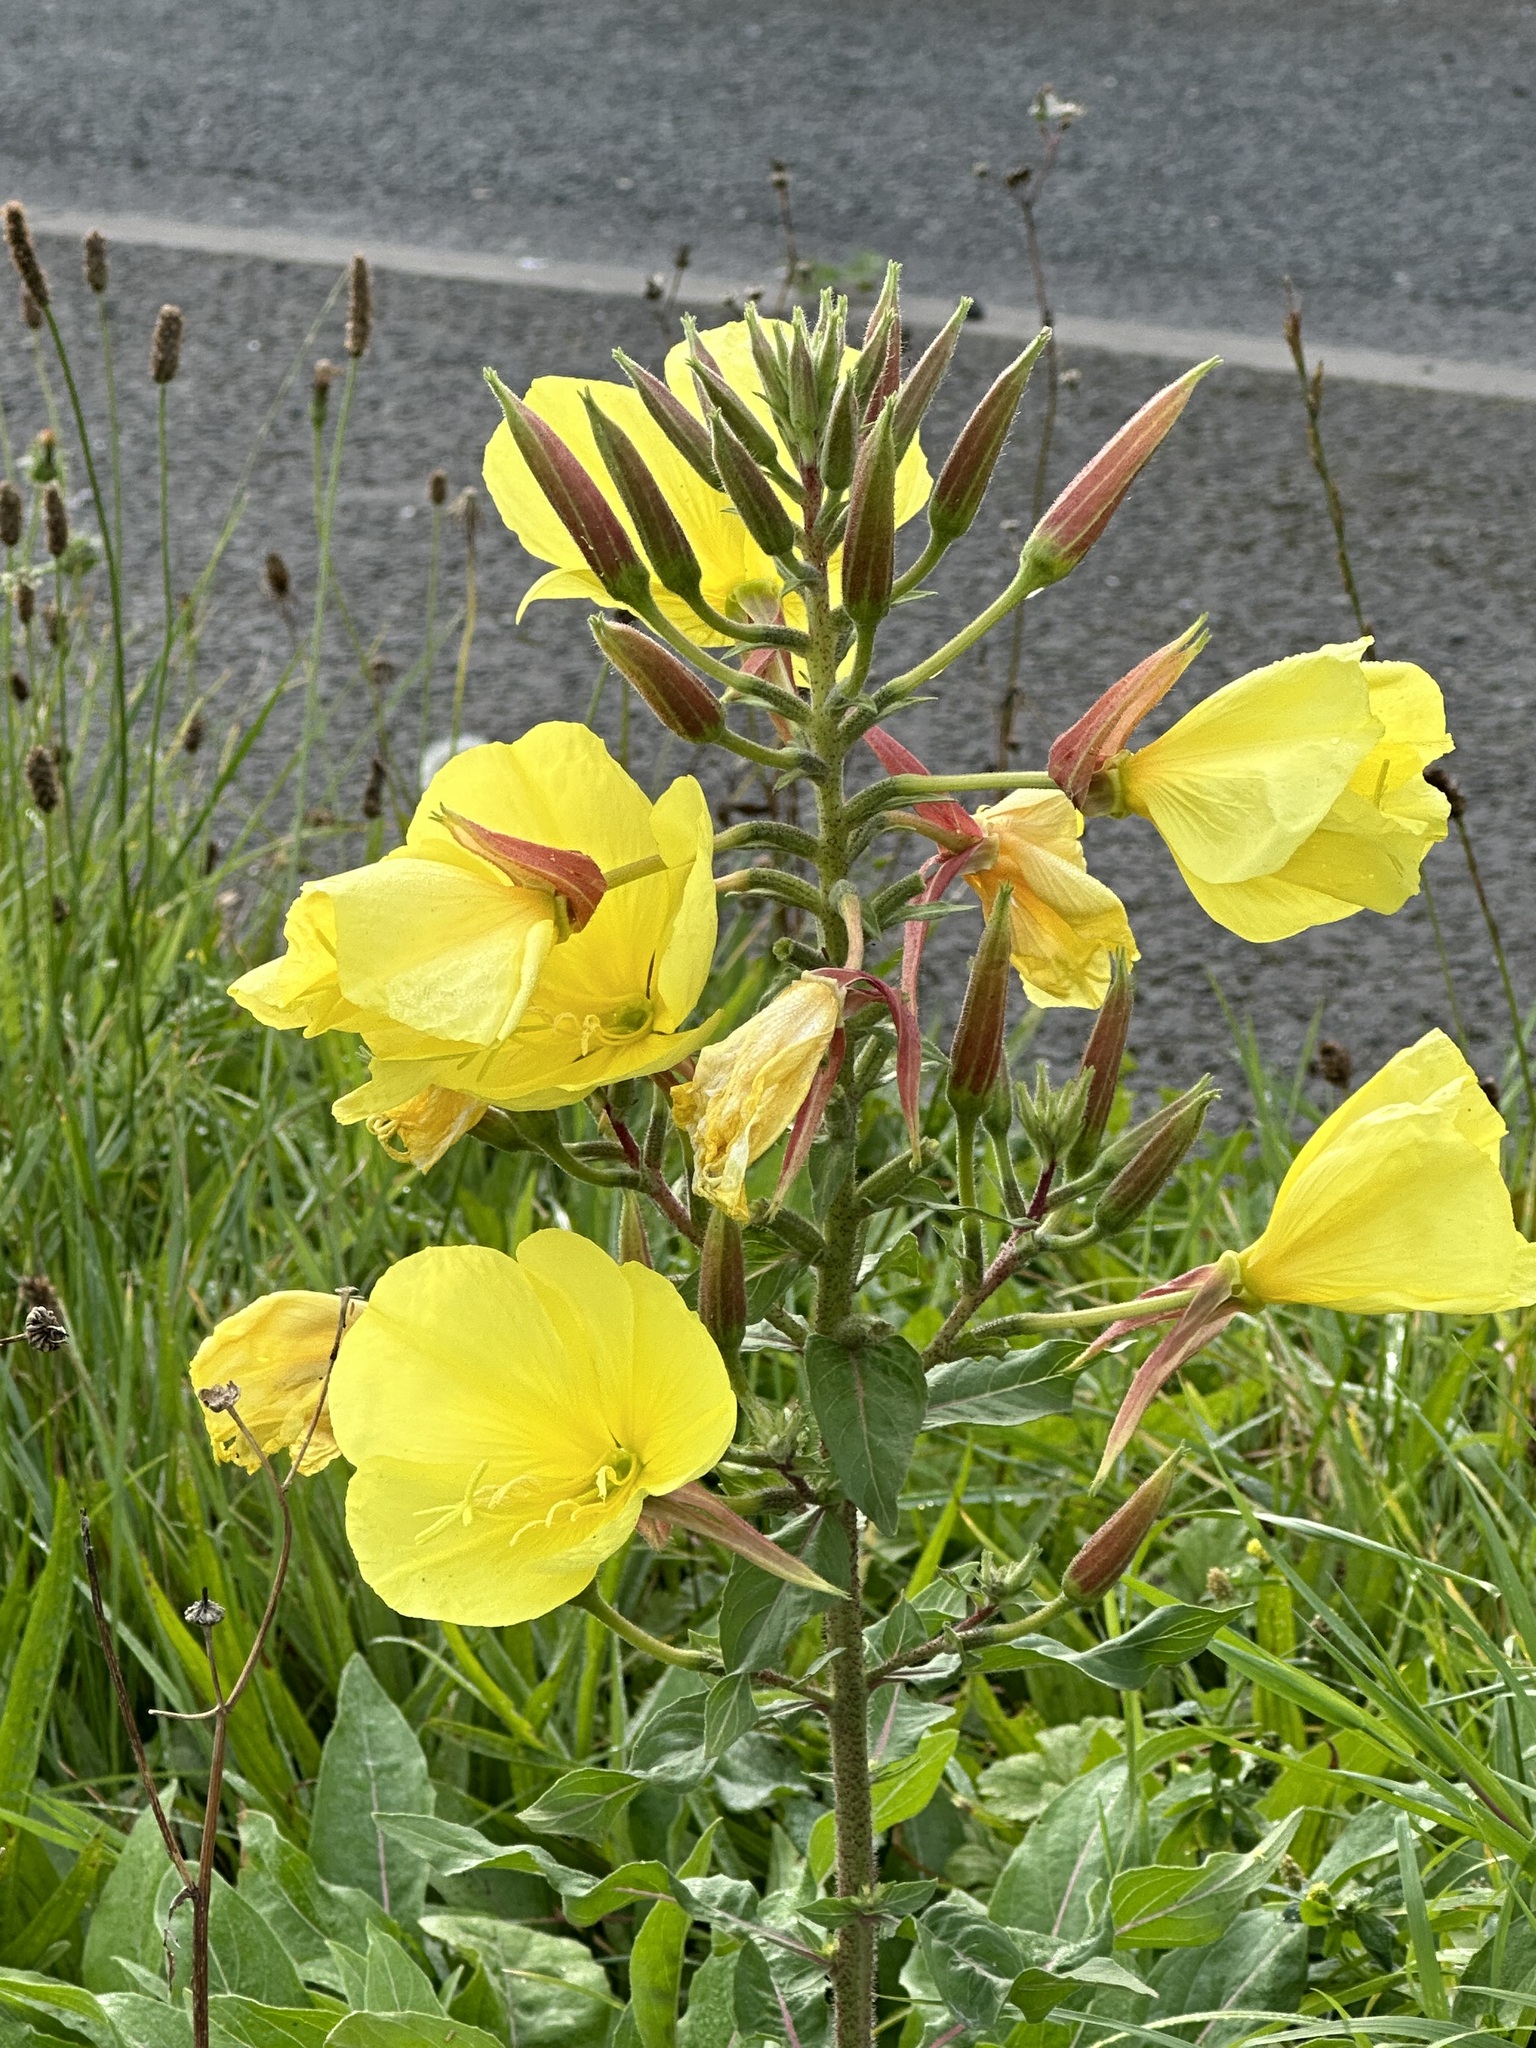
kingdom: Plantae
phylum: Tracheophyta
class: Magnoliopsida
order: Myrtales
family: Onagraceae
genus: Oenothera
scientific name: Oenothera glazioviana
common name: Large-flowered evening-primrose
